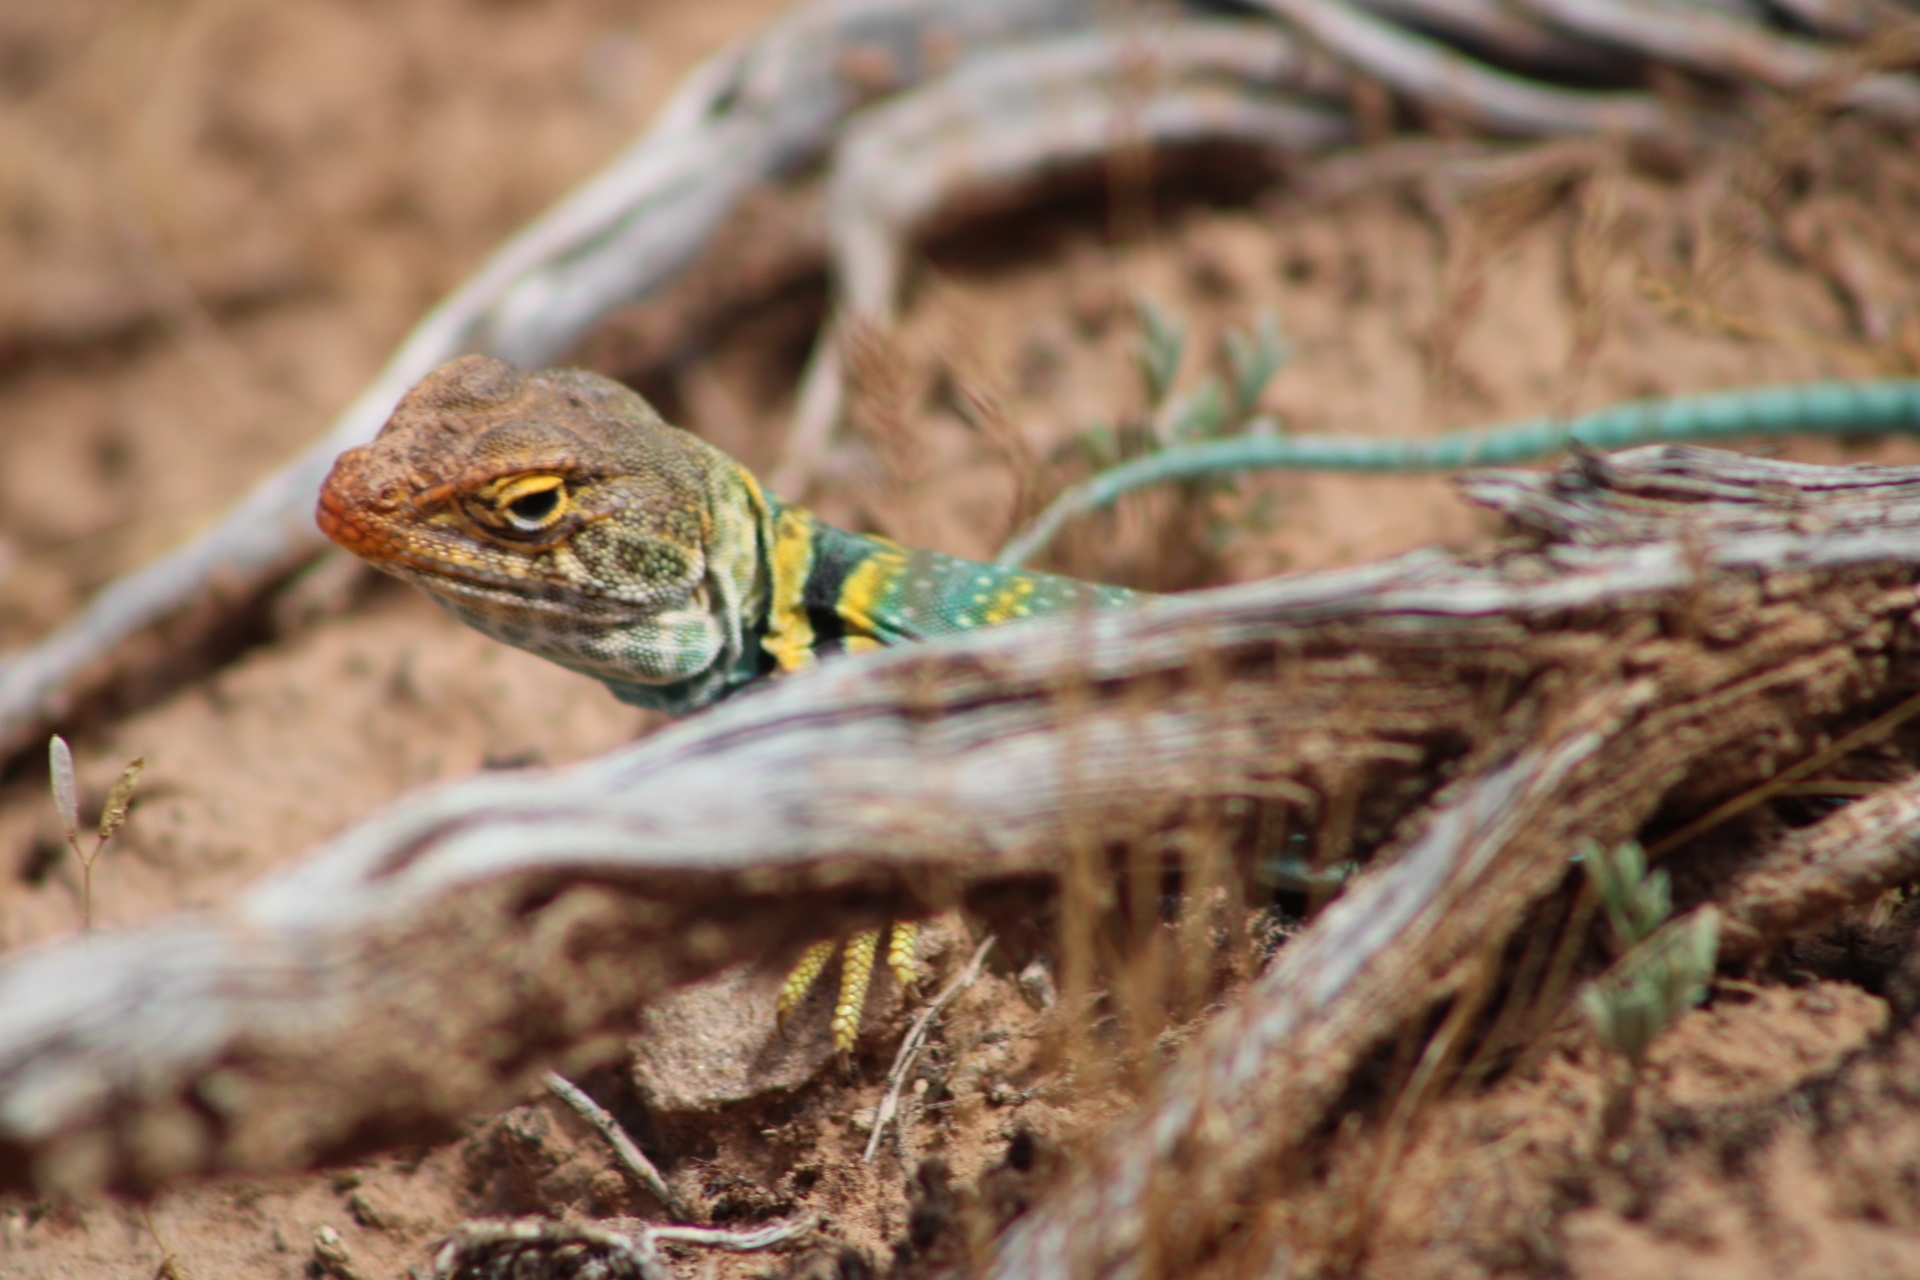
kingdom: Animalia
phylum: Chordata
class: Squamata
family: Crotaphytidae
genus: Crotaphytus
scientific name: Crotaphytus collaris
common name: Collared lizard
